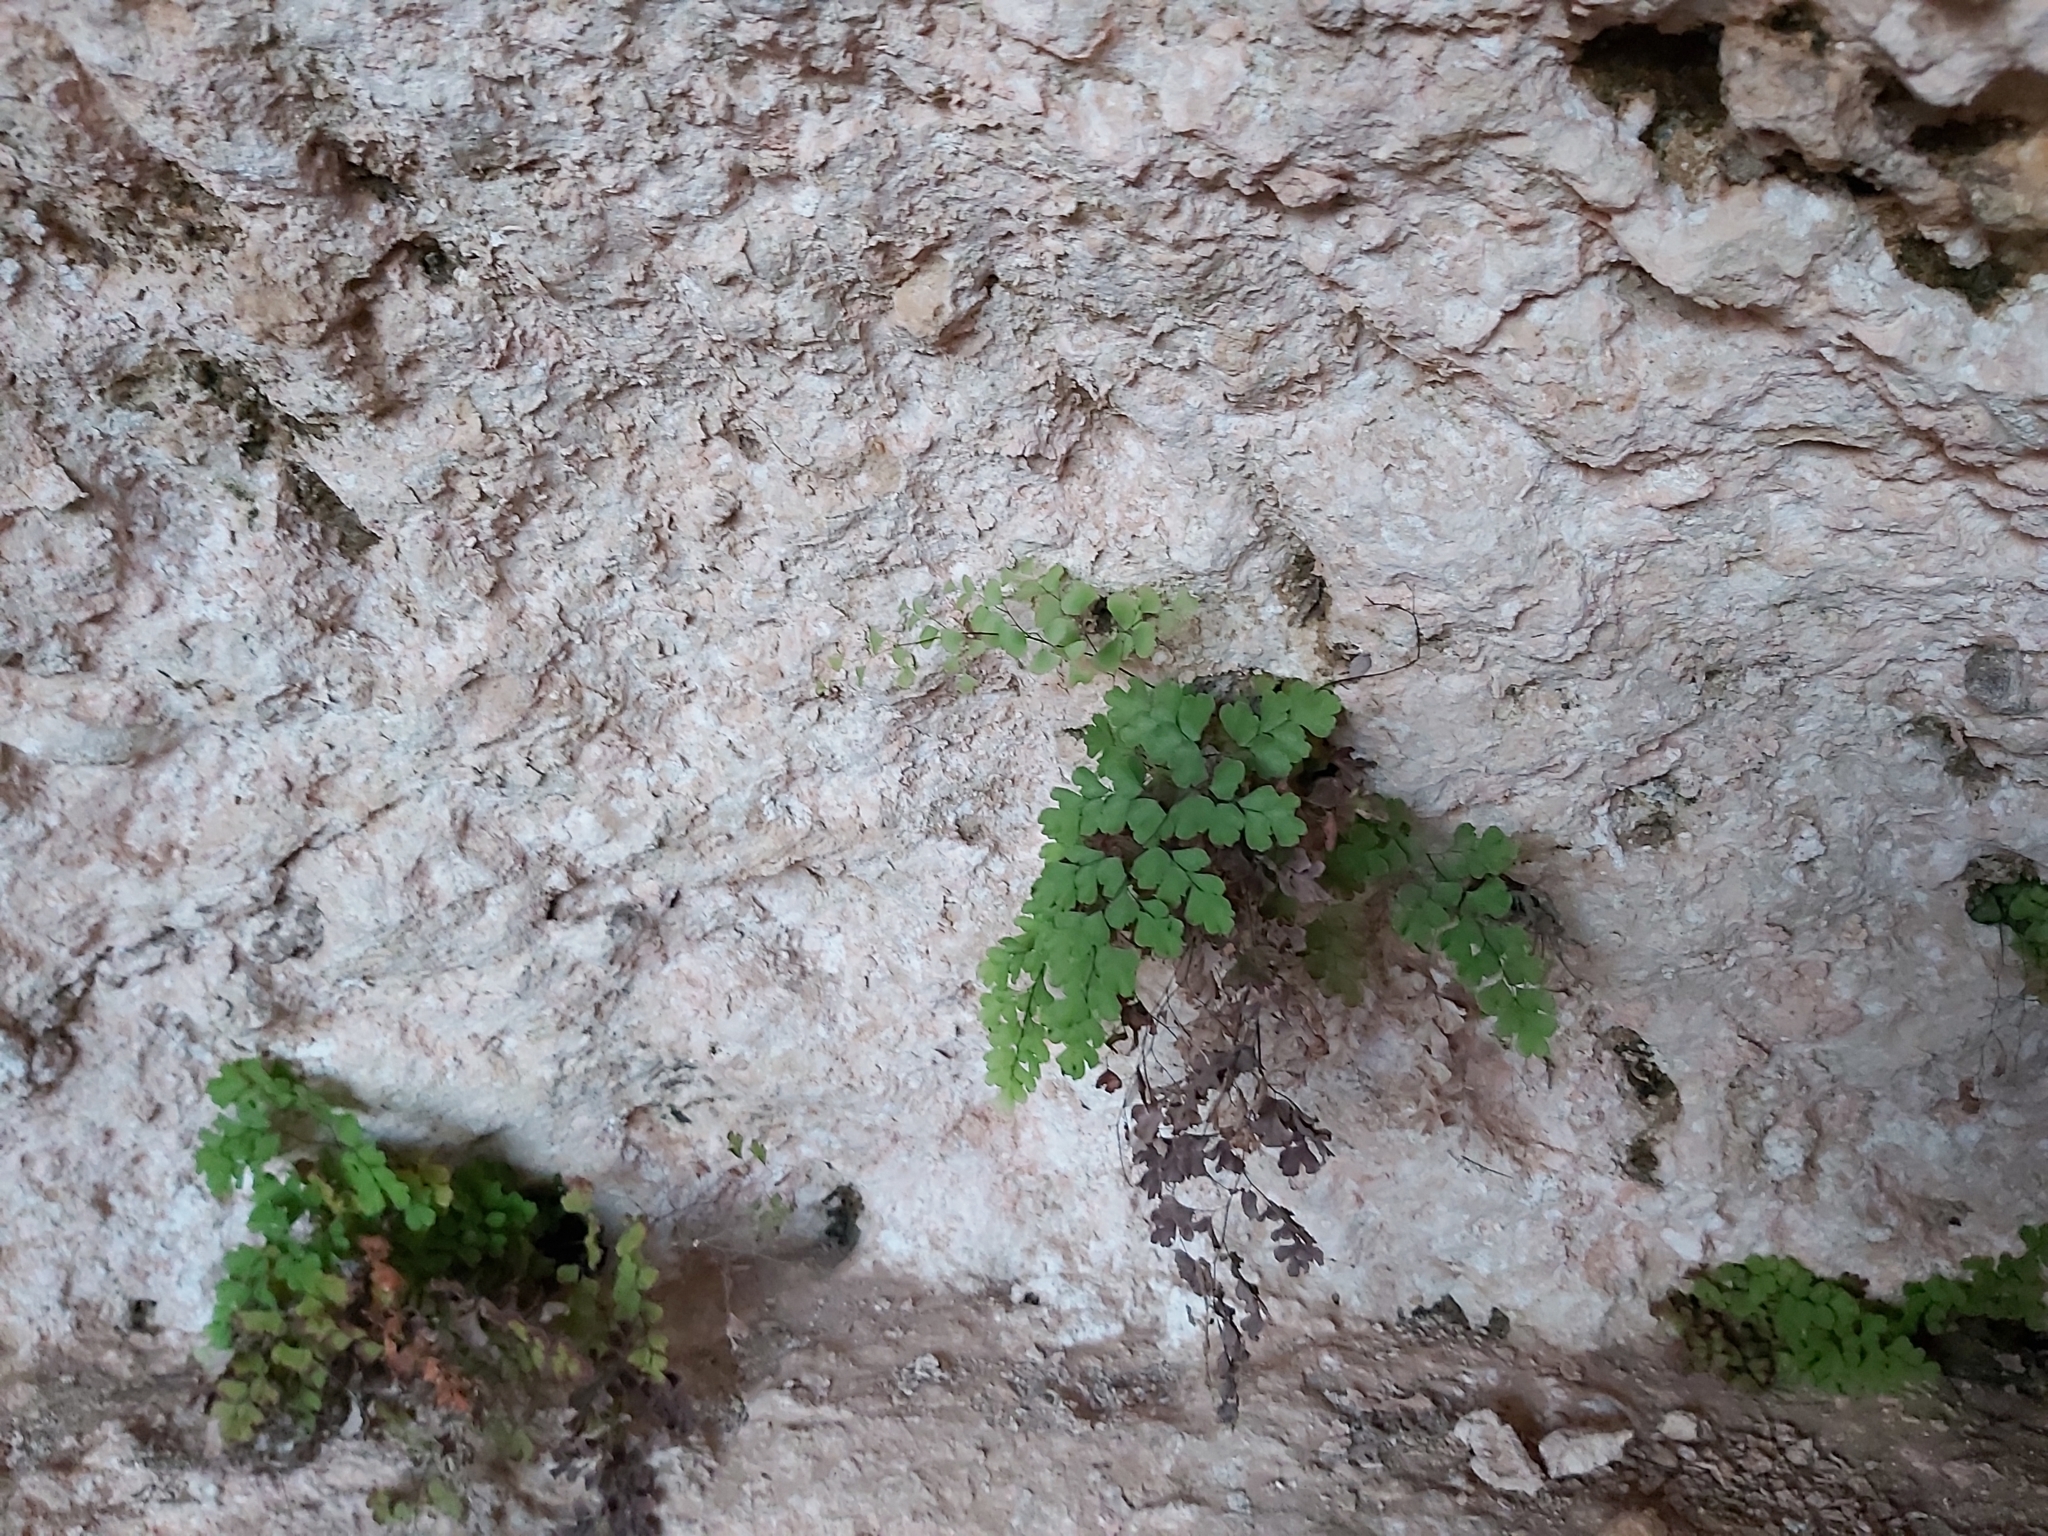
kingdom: Plantae
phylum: Tracheophyta
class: Polypodiopsida
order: Polypodiales
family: Pteridaceae
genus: Adiantum
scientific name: Adiantum capillus-veneris
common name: Maidenhair fern
